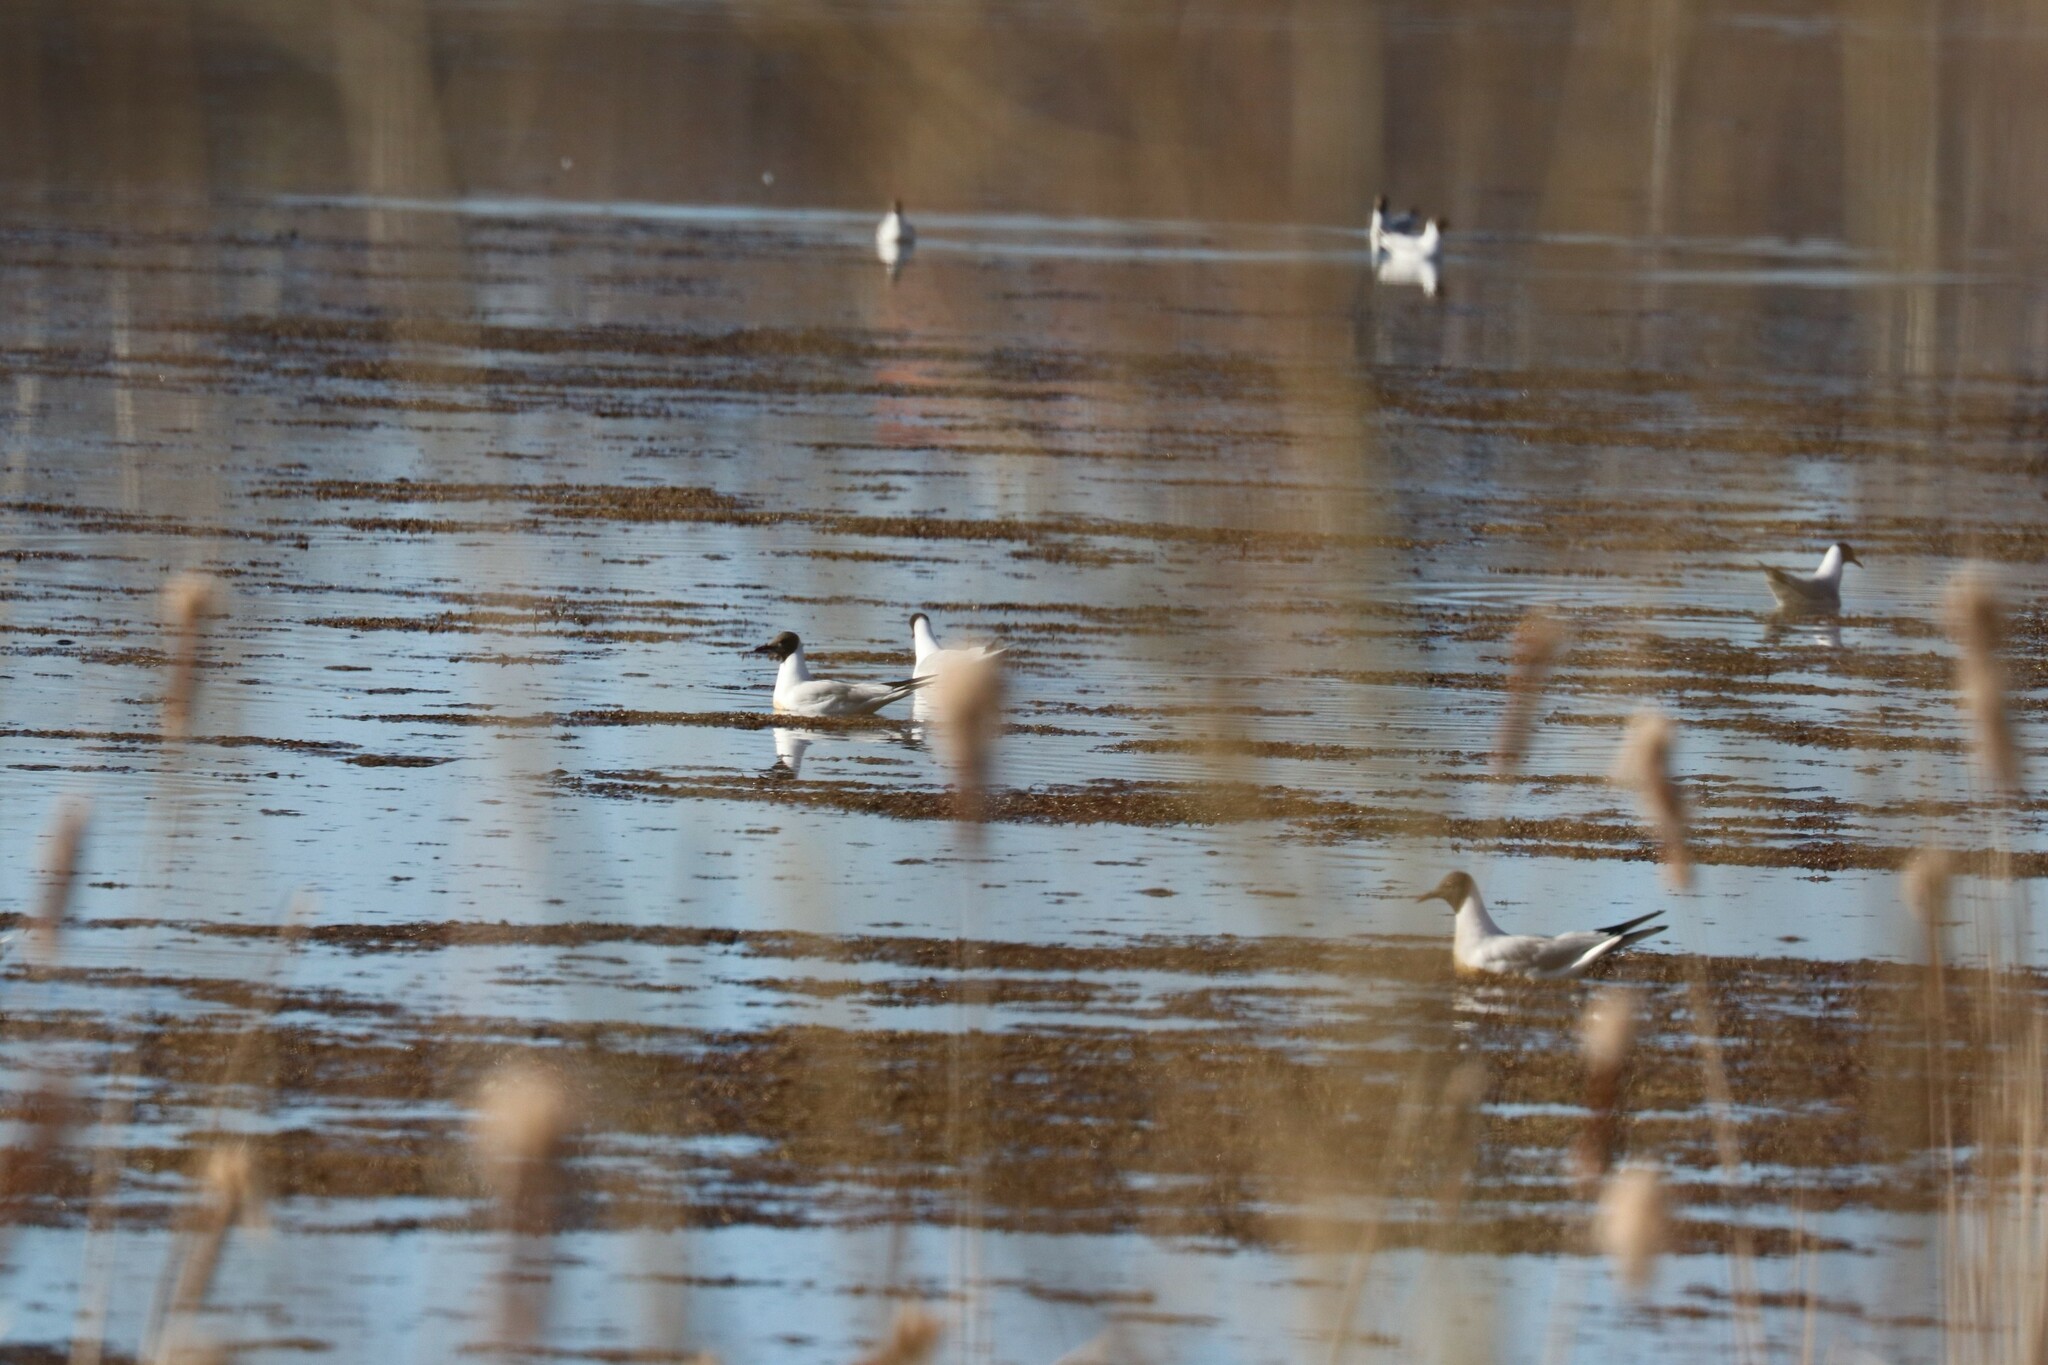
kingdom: Animalia
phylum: Chordata
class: Aves
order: Charadriiformes
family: Laridae
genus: Chroicocephalus
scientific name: Chroicocephalus ridibundus
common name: Black-headed gull
